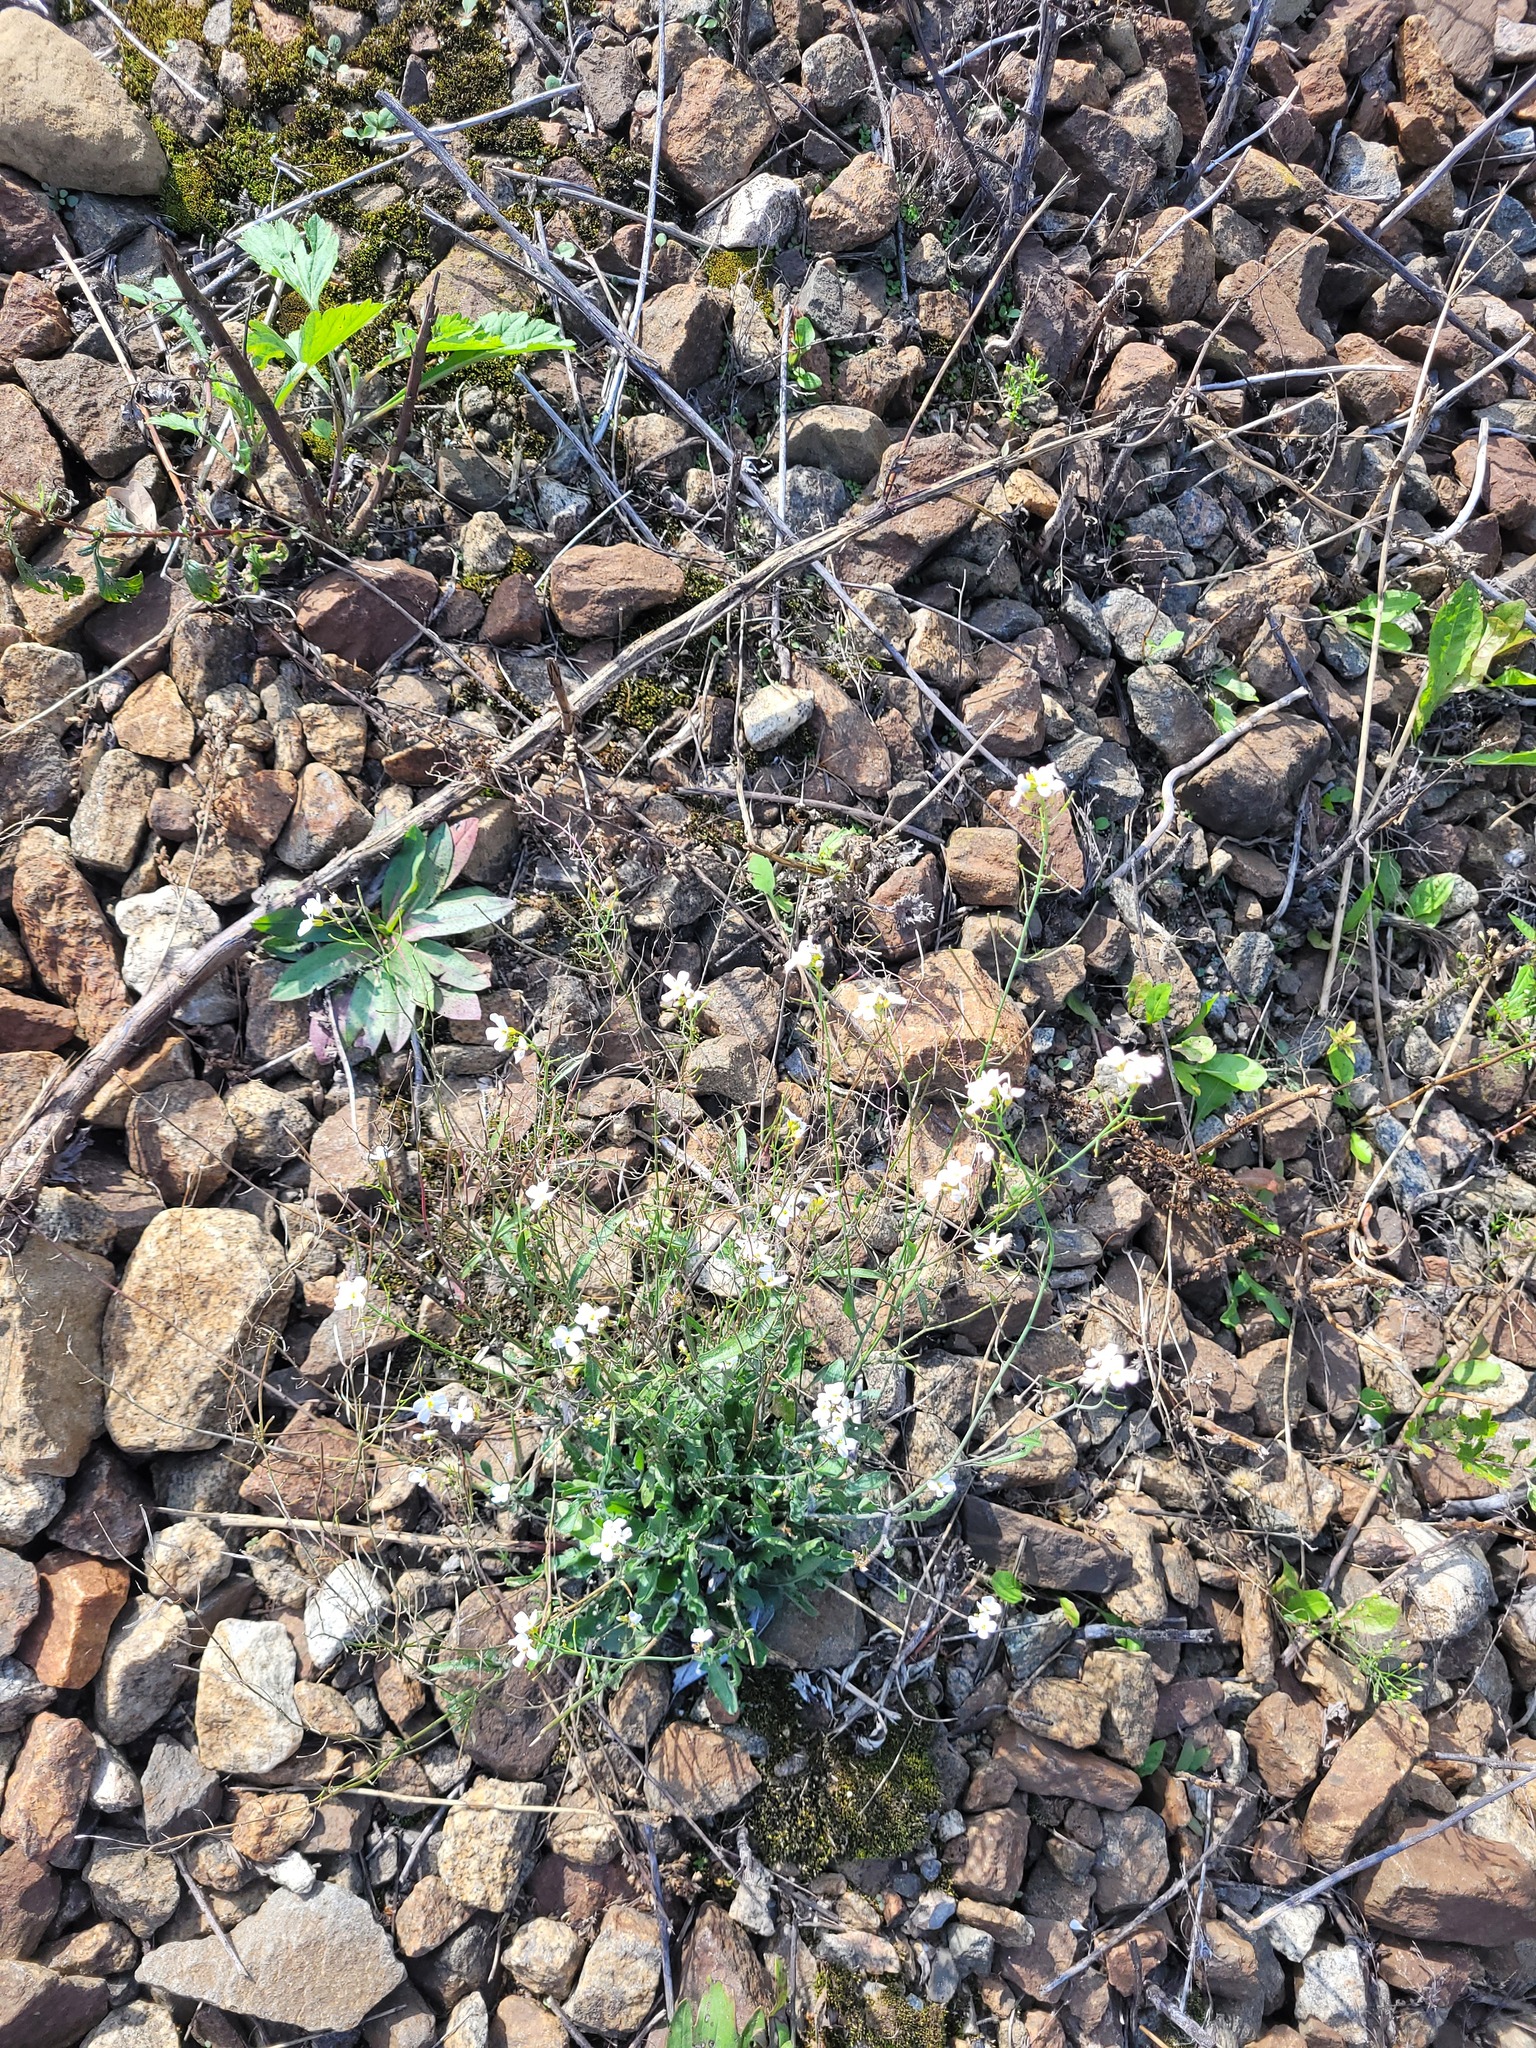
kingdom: Plantae
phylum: Tracheophyta
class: Magnoliopsida
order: Brassicales
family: Brassicaceae
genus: Arabidopsis
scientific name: Arabidopsis arenosa
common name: Sand rock-cress
